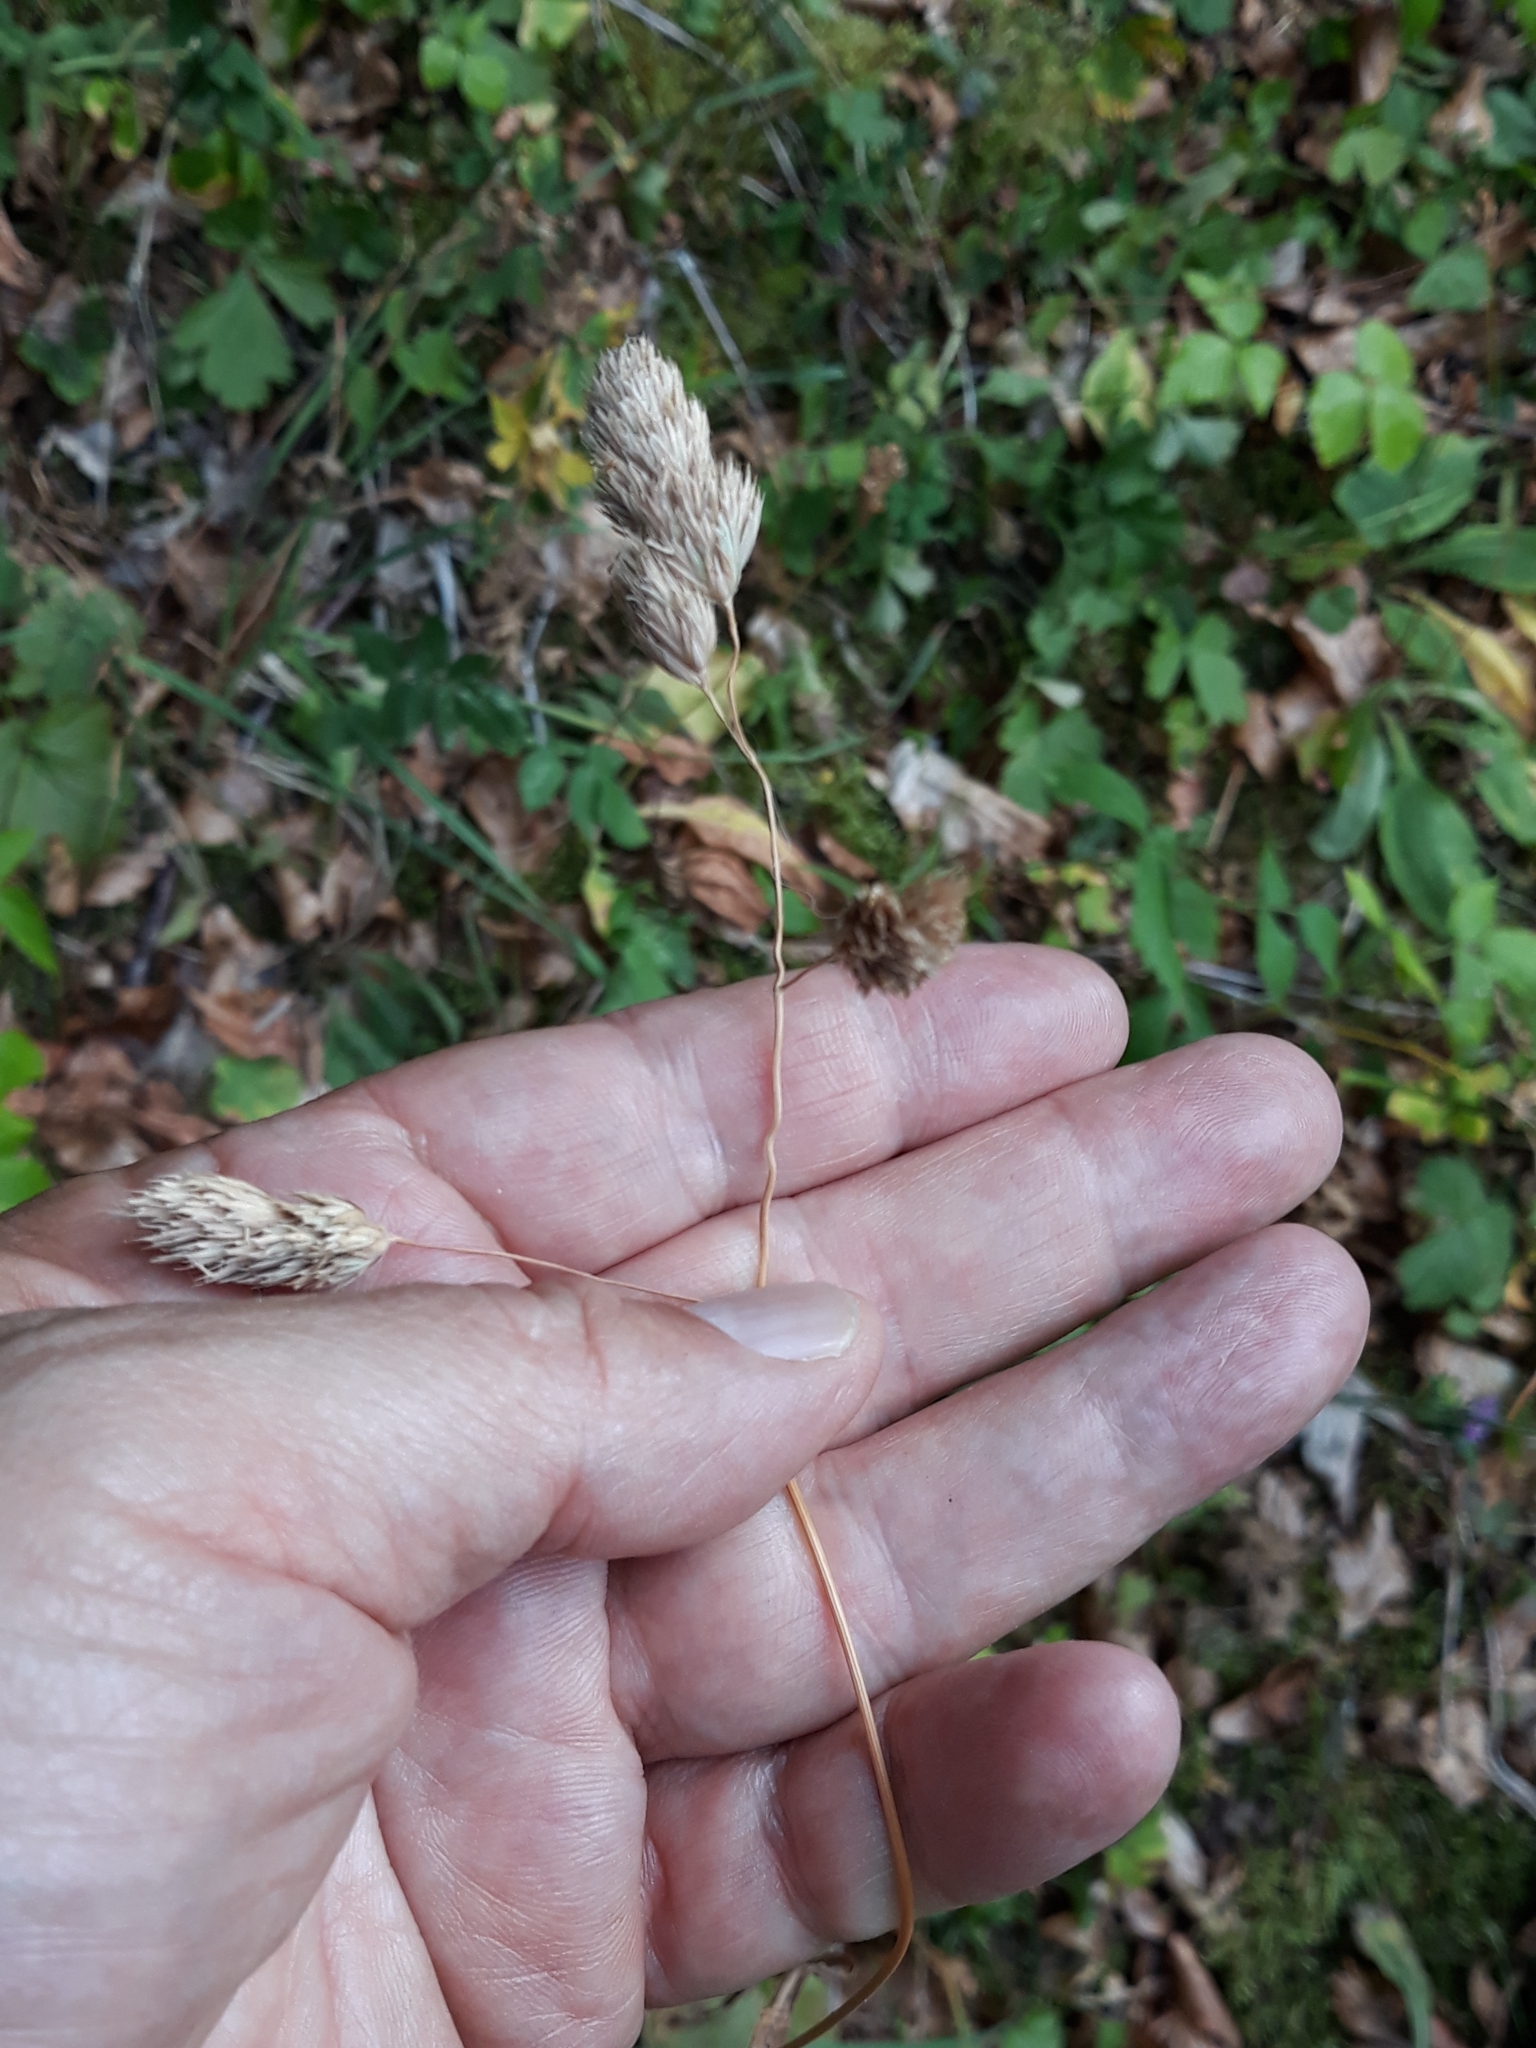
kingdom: Plantae
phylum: Tracheophyta
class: Liliopsida
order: Poales
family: Poaceae
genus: Dactylis
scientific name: Dactylis glomerata
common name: Orchardgrass
